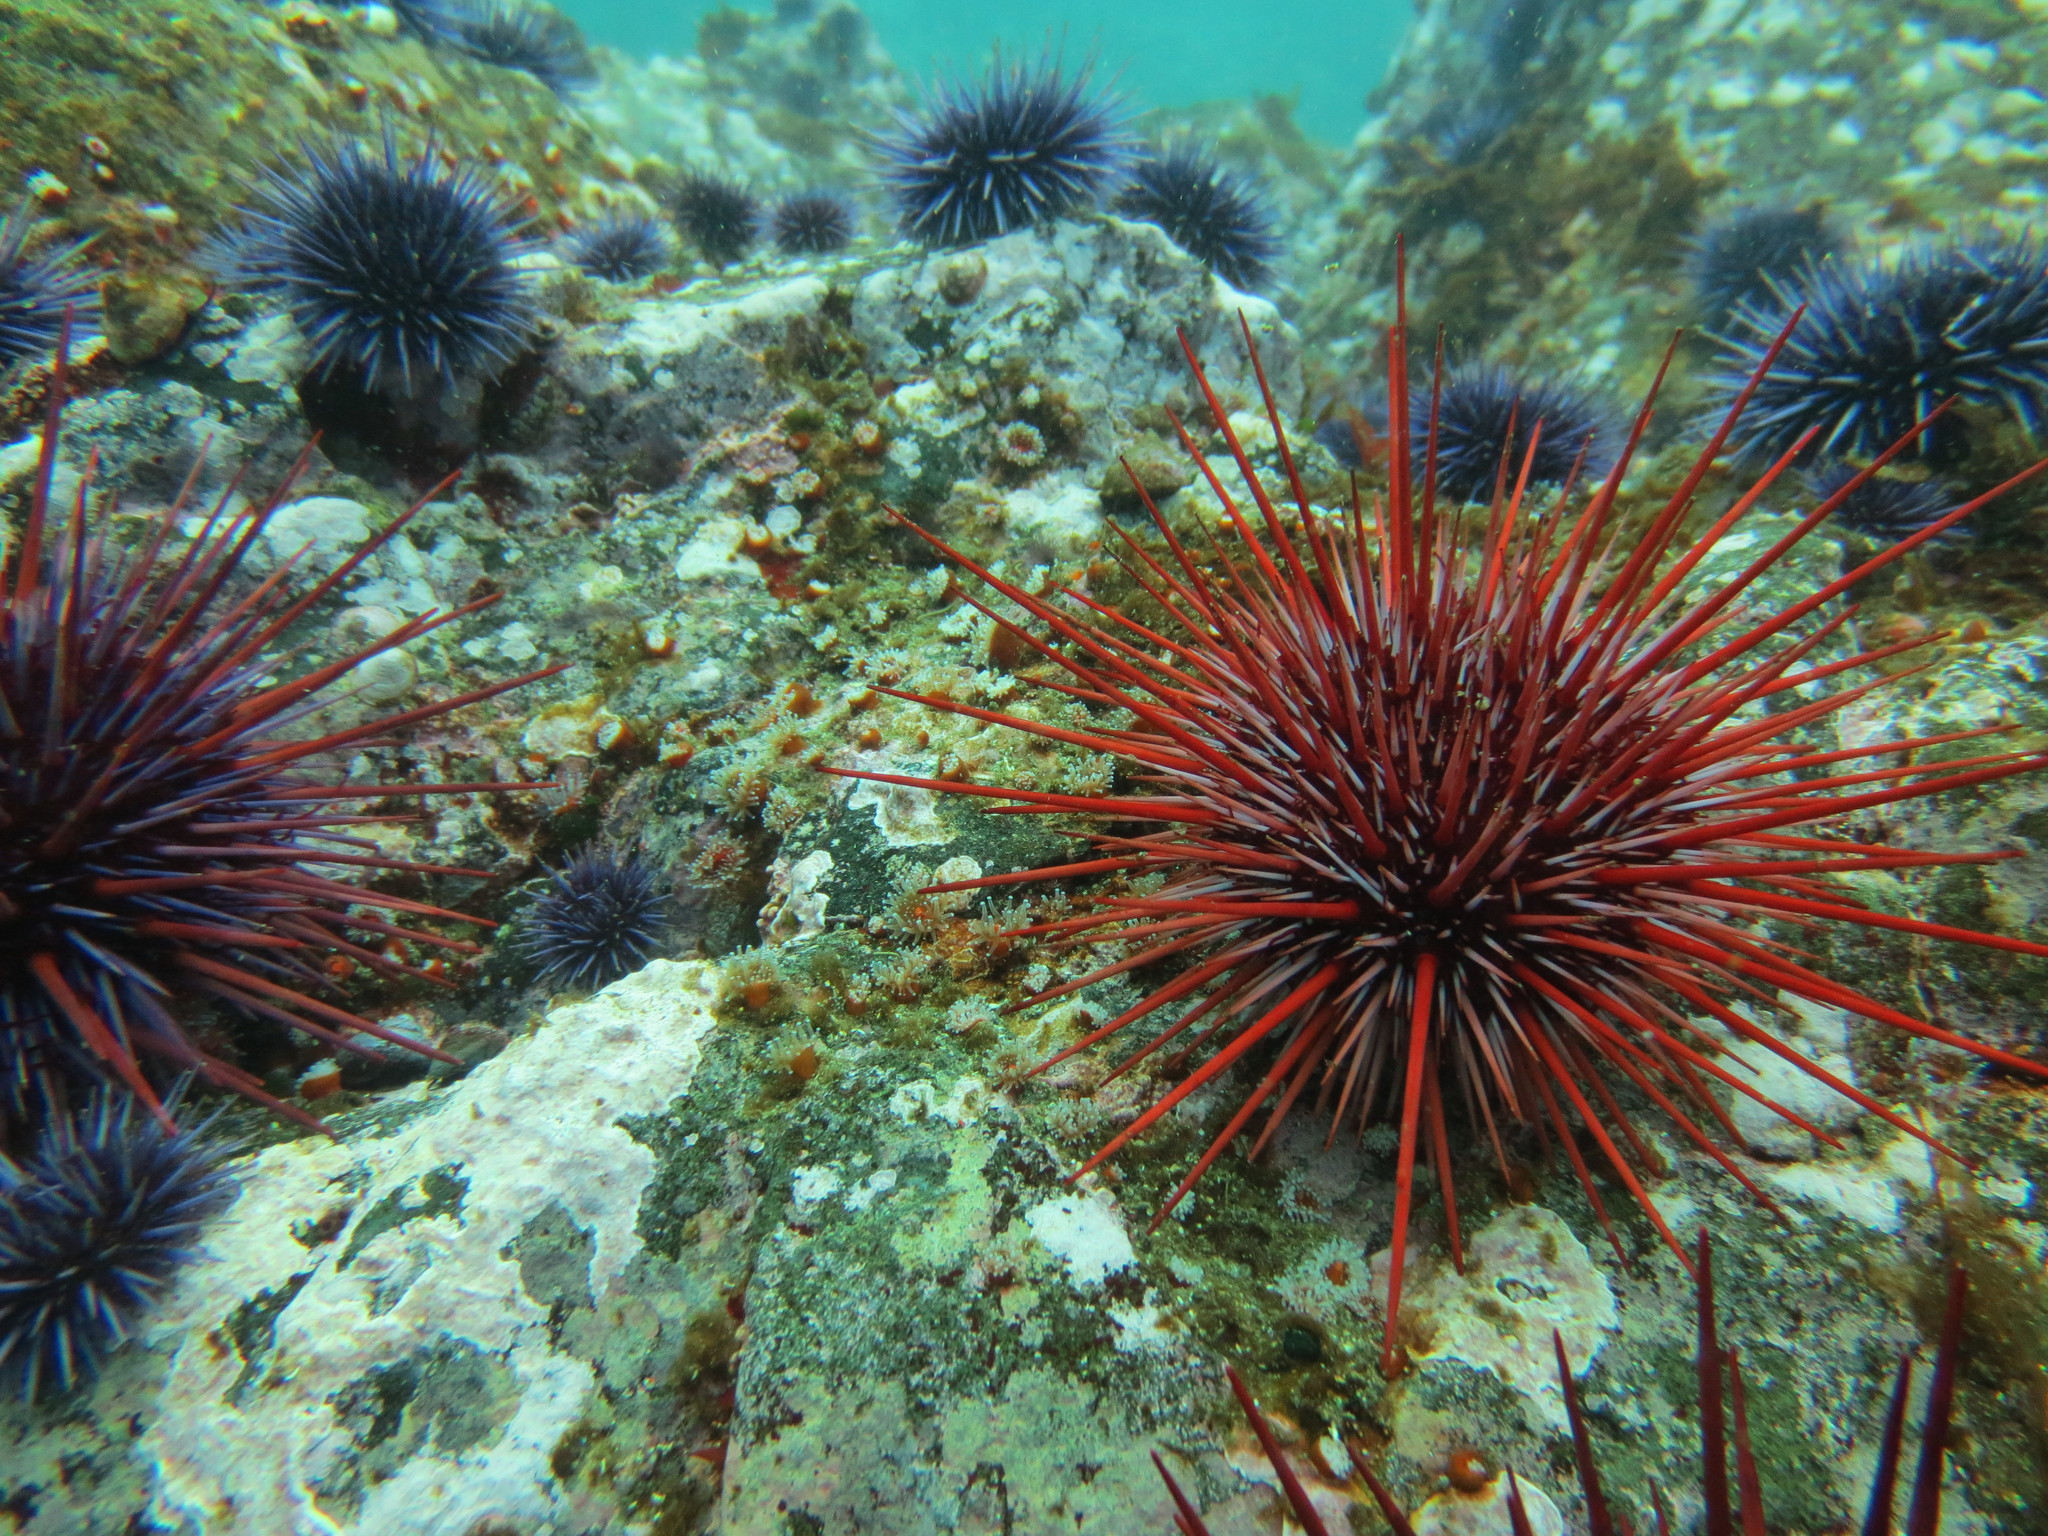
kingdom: Animalia
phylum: Echinodermata
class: Echinoidea
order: Camarodonta
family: Strongylocentrotidae
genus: Mesocentrotus
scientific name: Mesocentrotus franciscanus
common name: Red sea urchin
